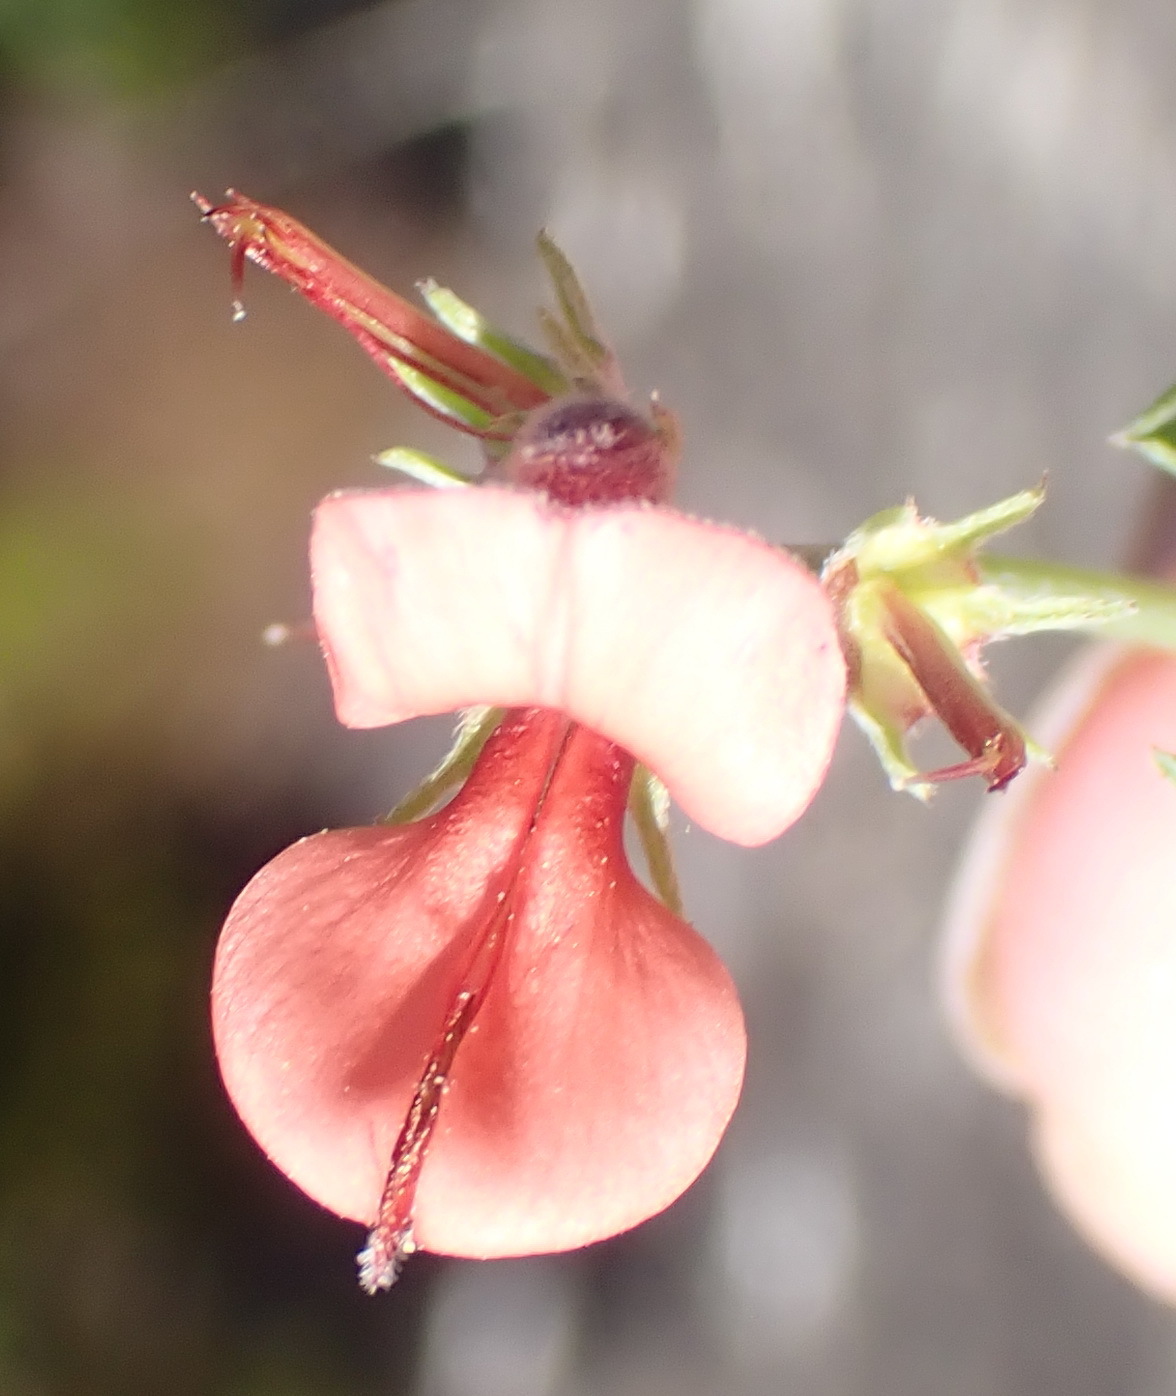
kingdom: Plantae
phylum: Tracheophyta
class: Magnoliopsida
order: Fabales
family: Fabaceae
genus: Indigofera
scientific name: Indigofera candicans
